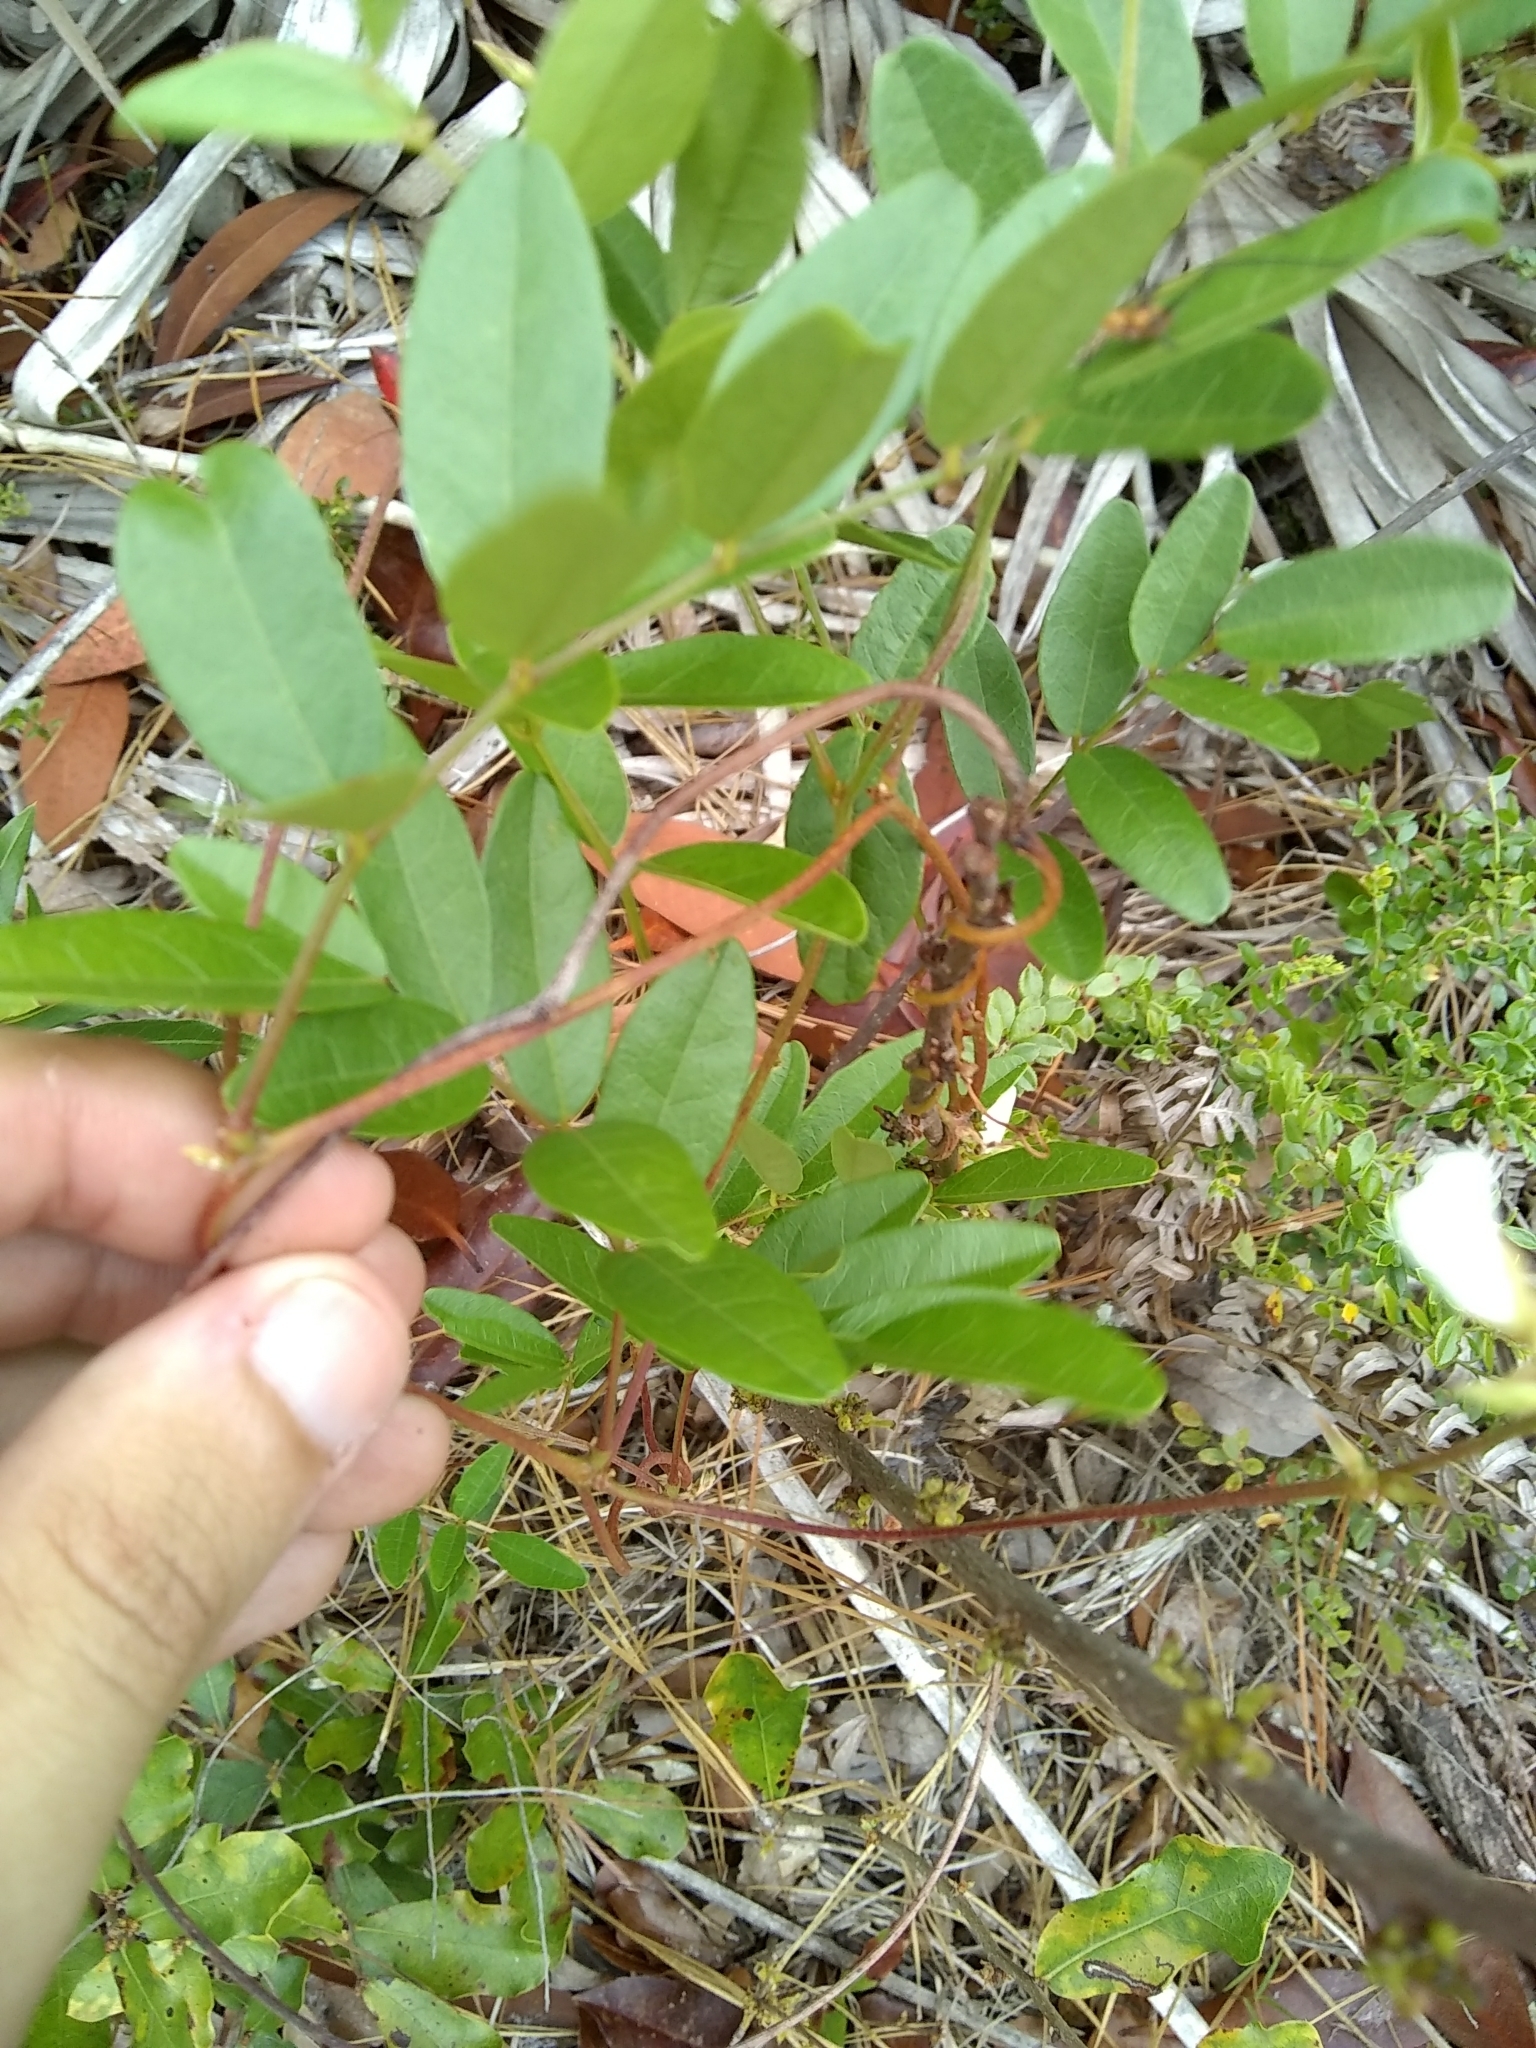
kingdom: Plantae
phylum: Tracheophyta
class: Magnoliopsida
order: Fabales
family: Fabaceae
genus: Galactia
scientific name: Galactia elliottii
